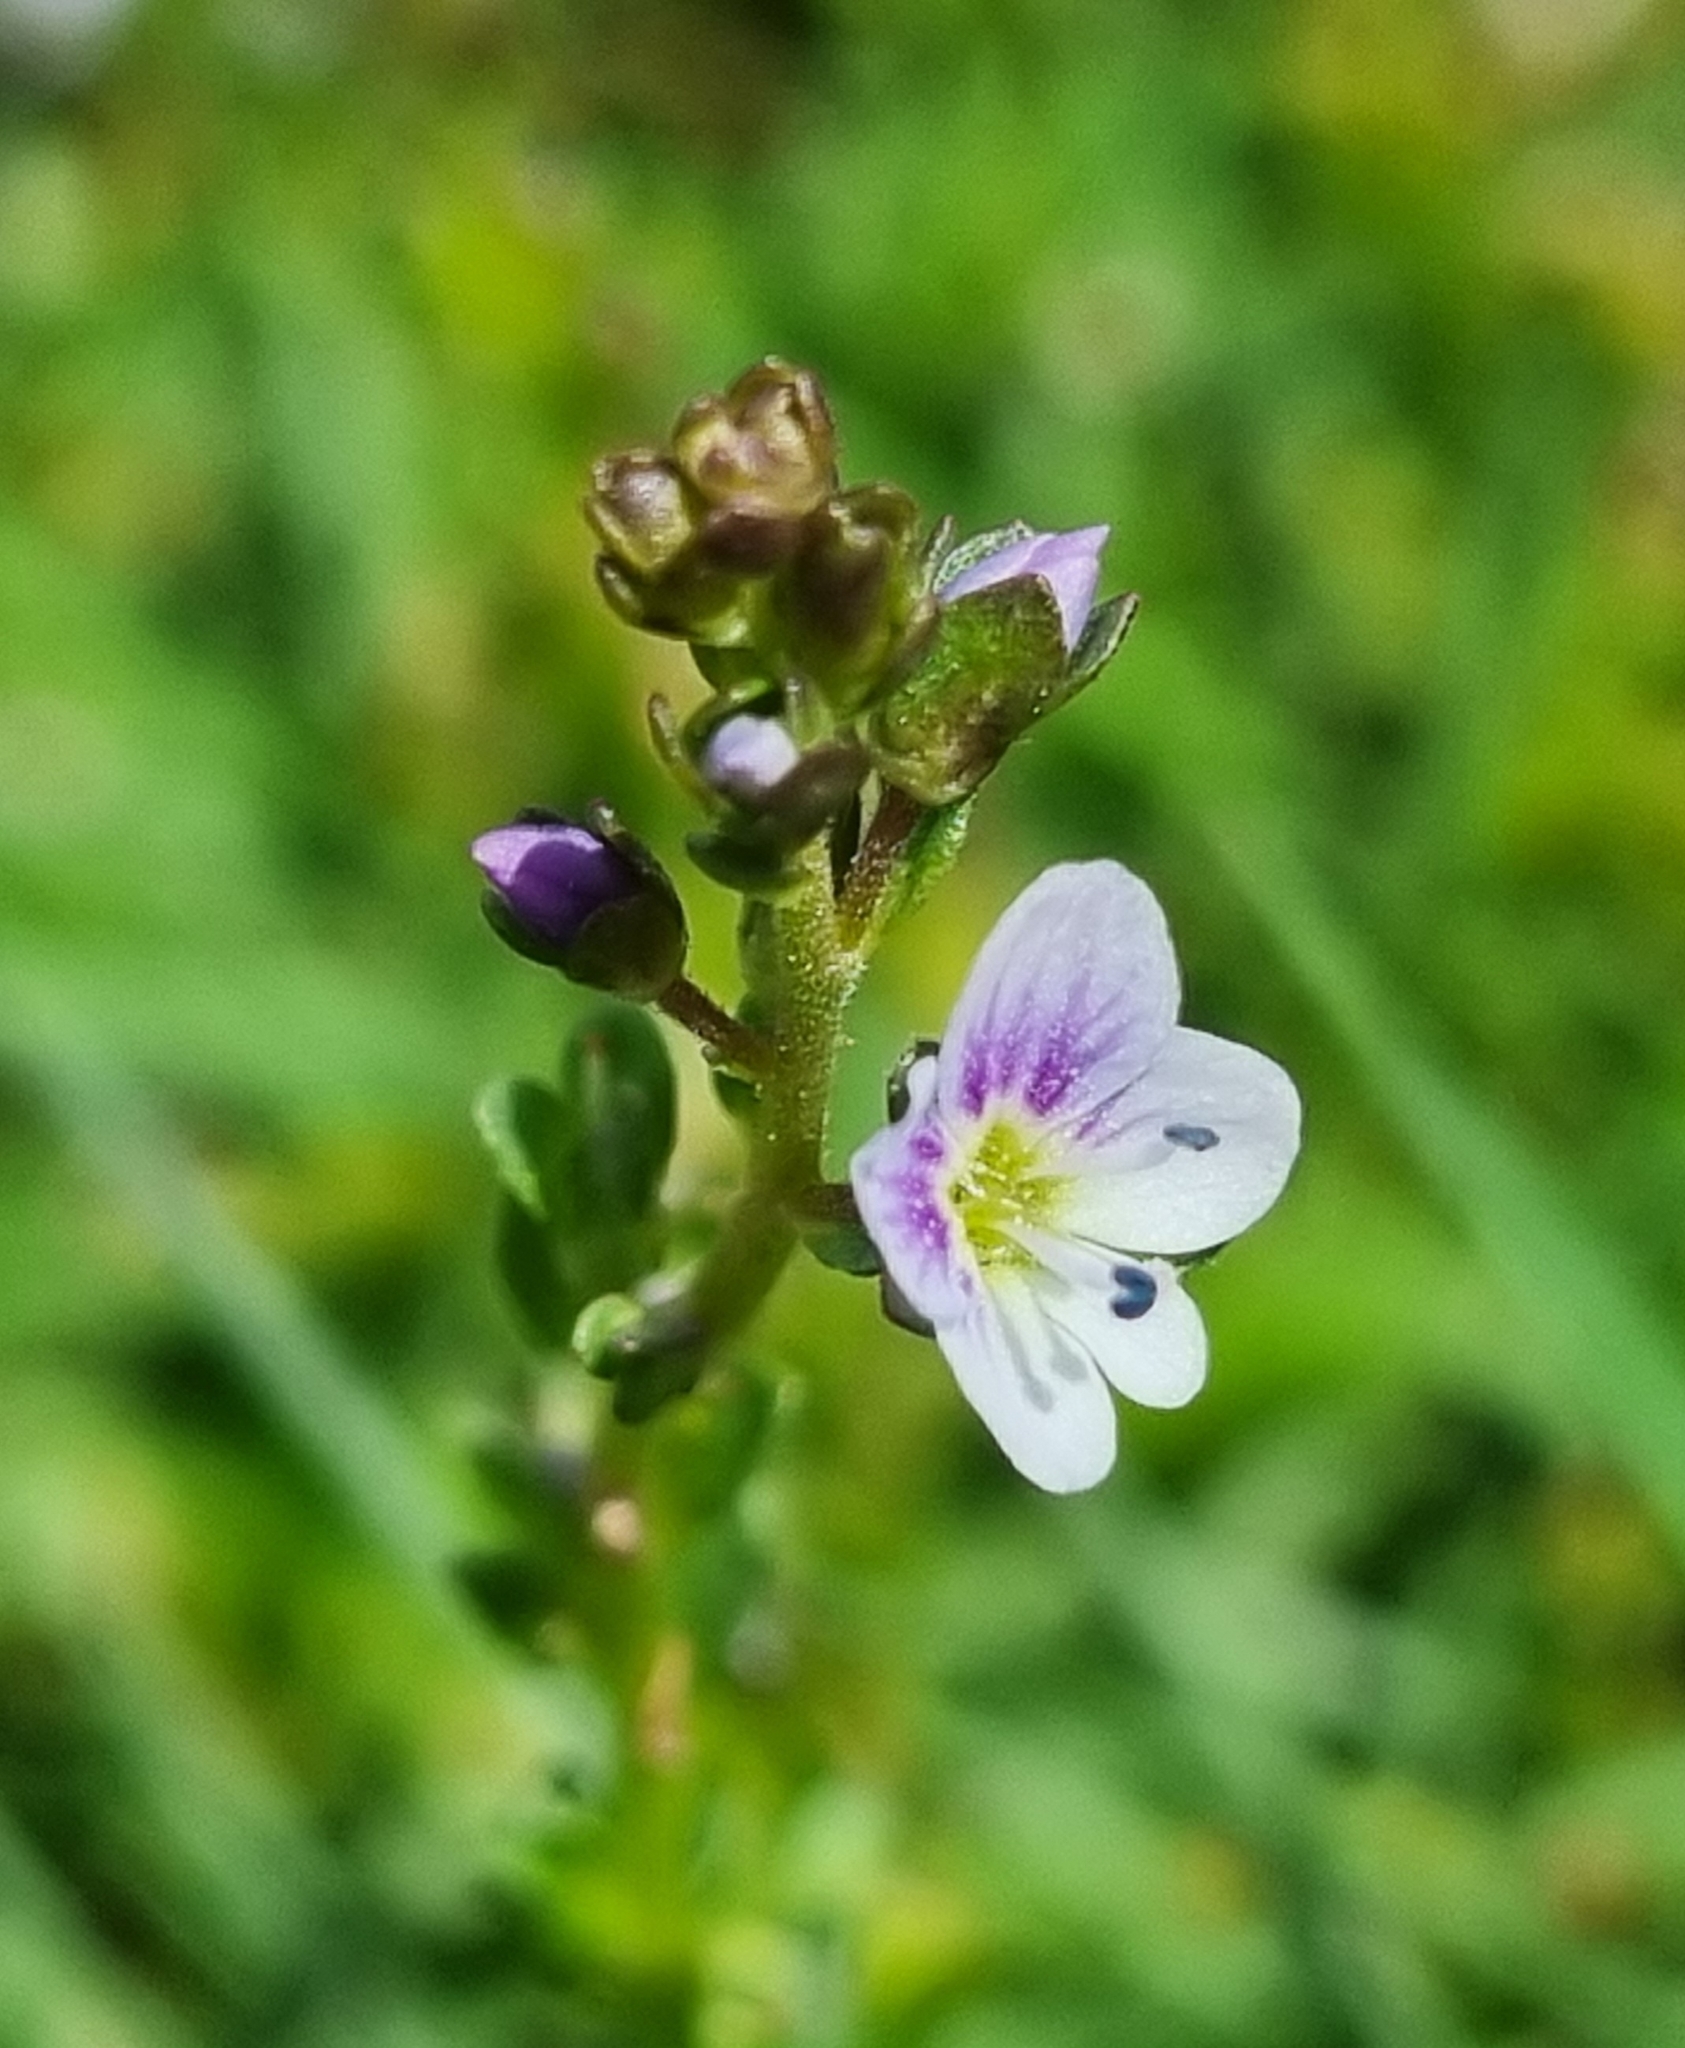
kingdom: Plantae
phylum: Tracheophyta
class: Magnoliopsida
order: Lamiales
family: Plantaginaceae
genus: Veronica
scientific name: Veronica serpyllifolia
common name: Thyme-leaved speedwell
